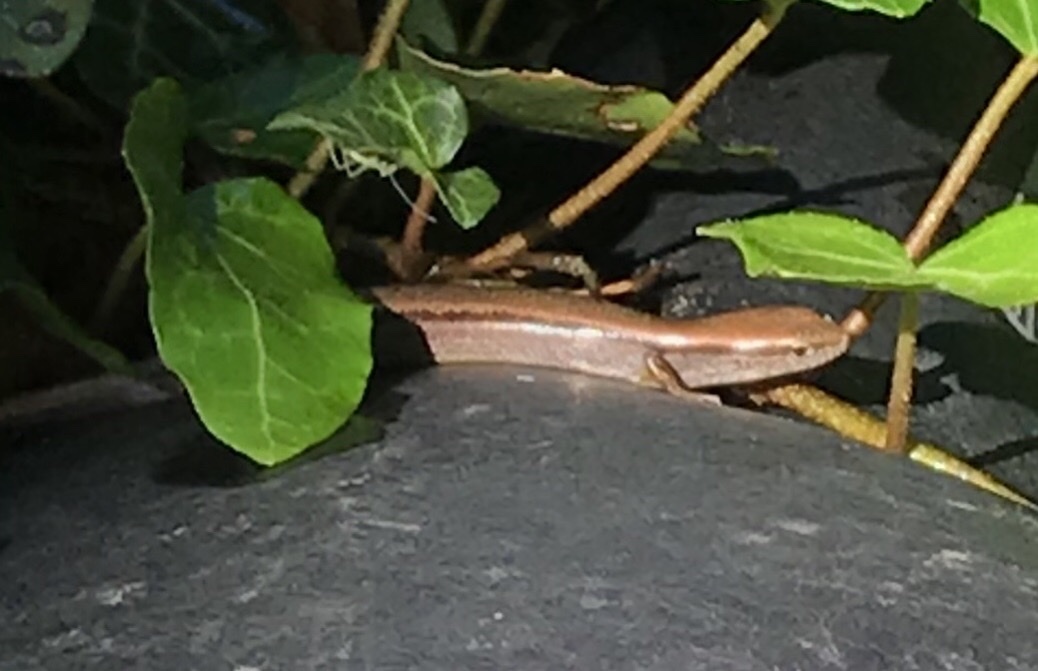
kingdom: Animalia
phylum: Chordata
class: Squamata
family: Scincidae
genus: Scincella
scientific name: Scincella lateralis
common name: Ground skink
